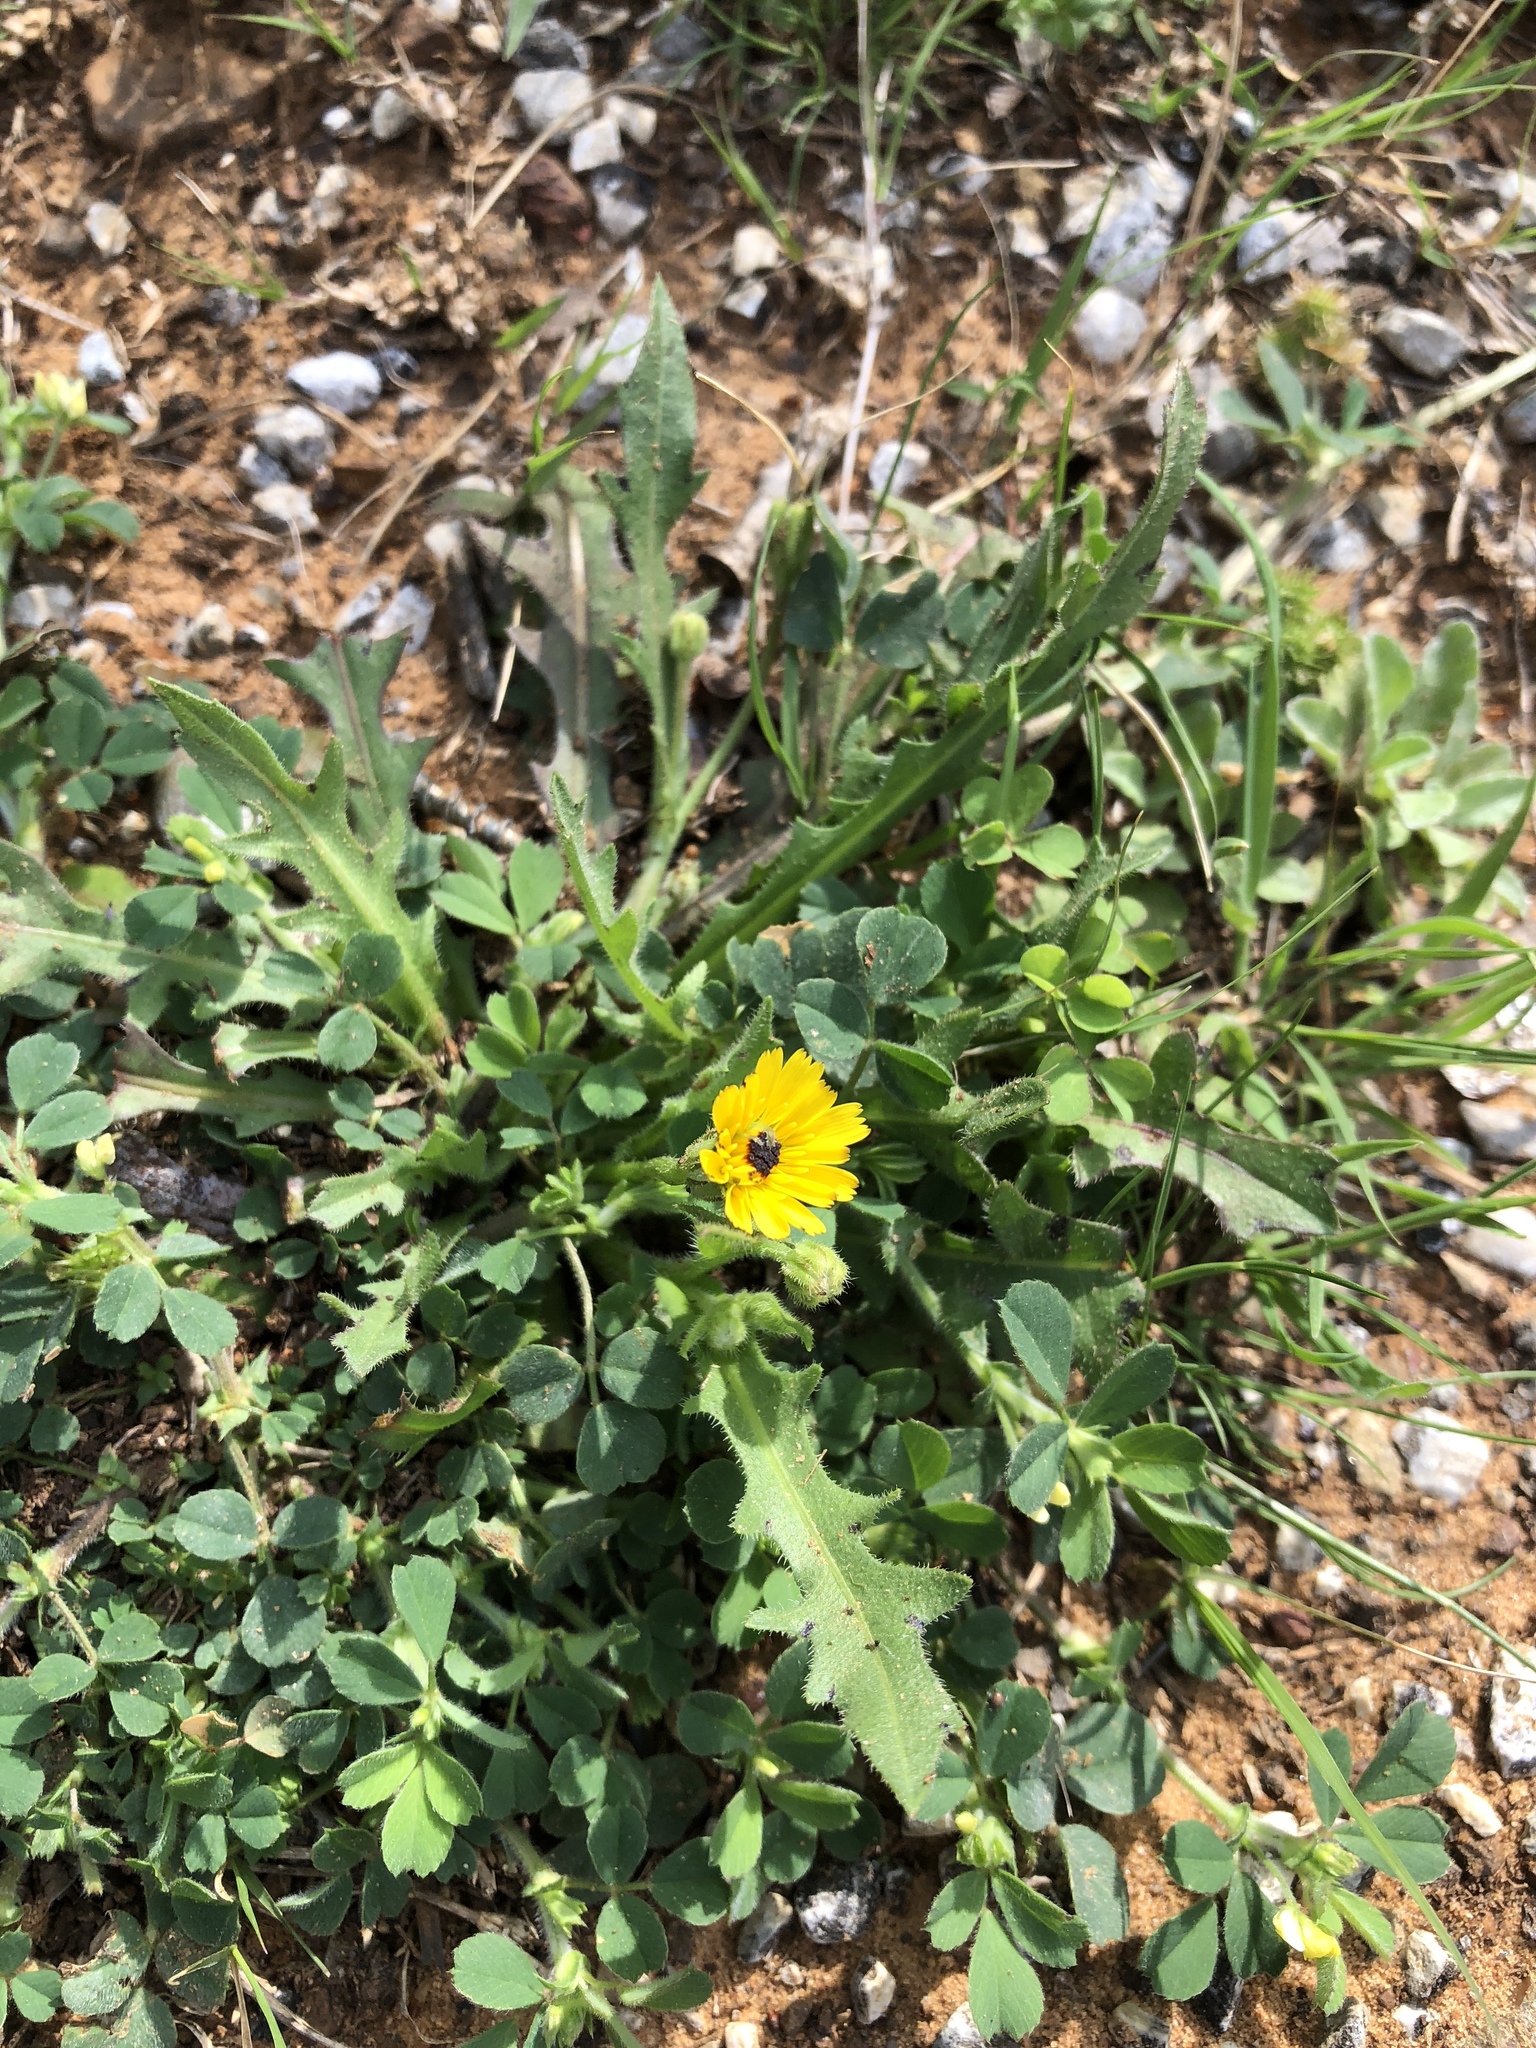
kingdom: Plantae
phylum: Tracheophyta
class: Magnoliopsida
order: Asterales
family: Asteraceae
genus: Hedypnois
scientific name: Hedypnois rhagadioloides
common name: Cretan weed
